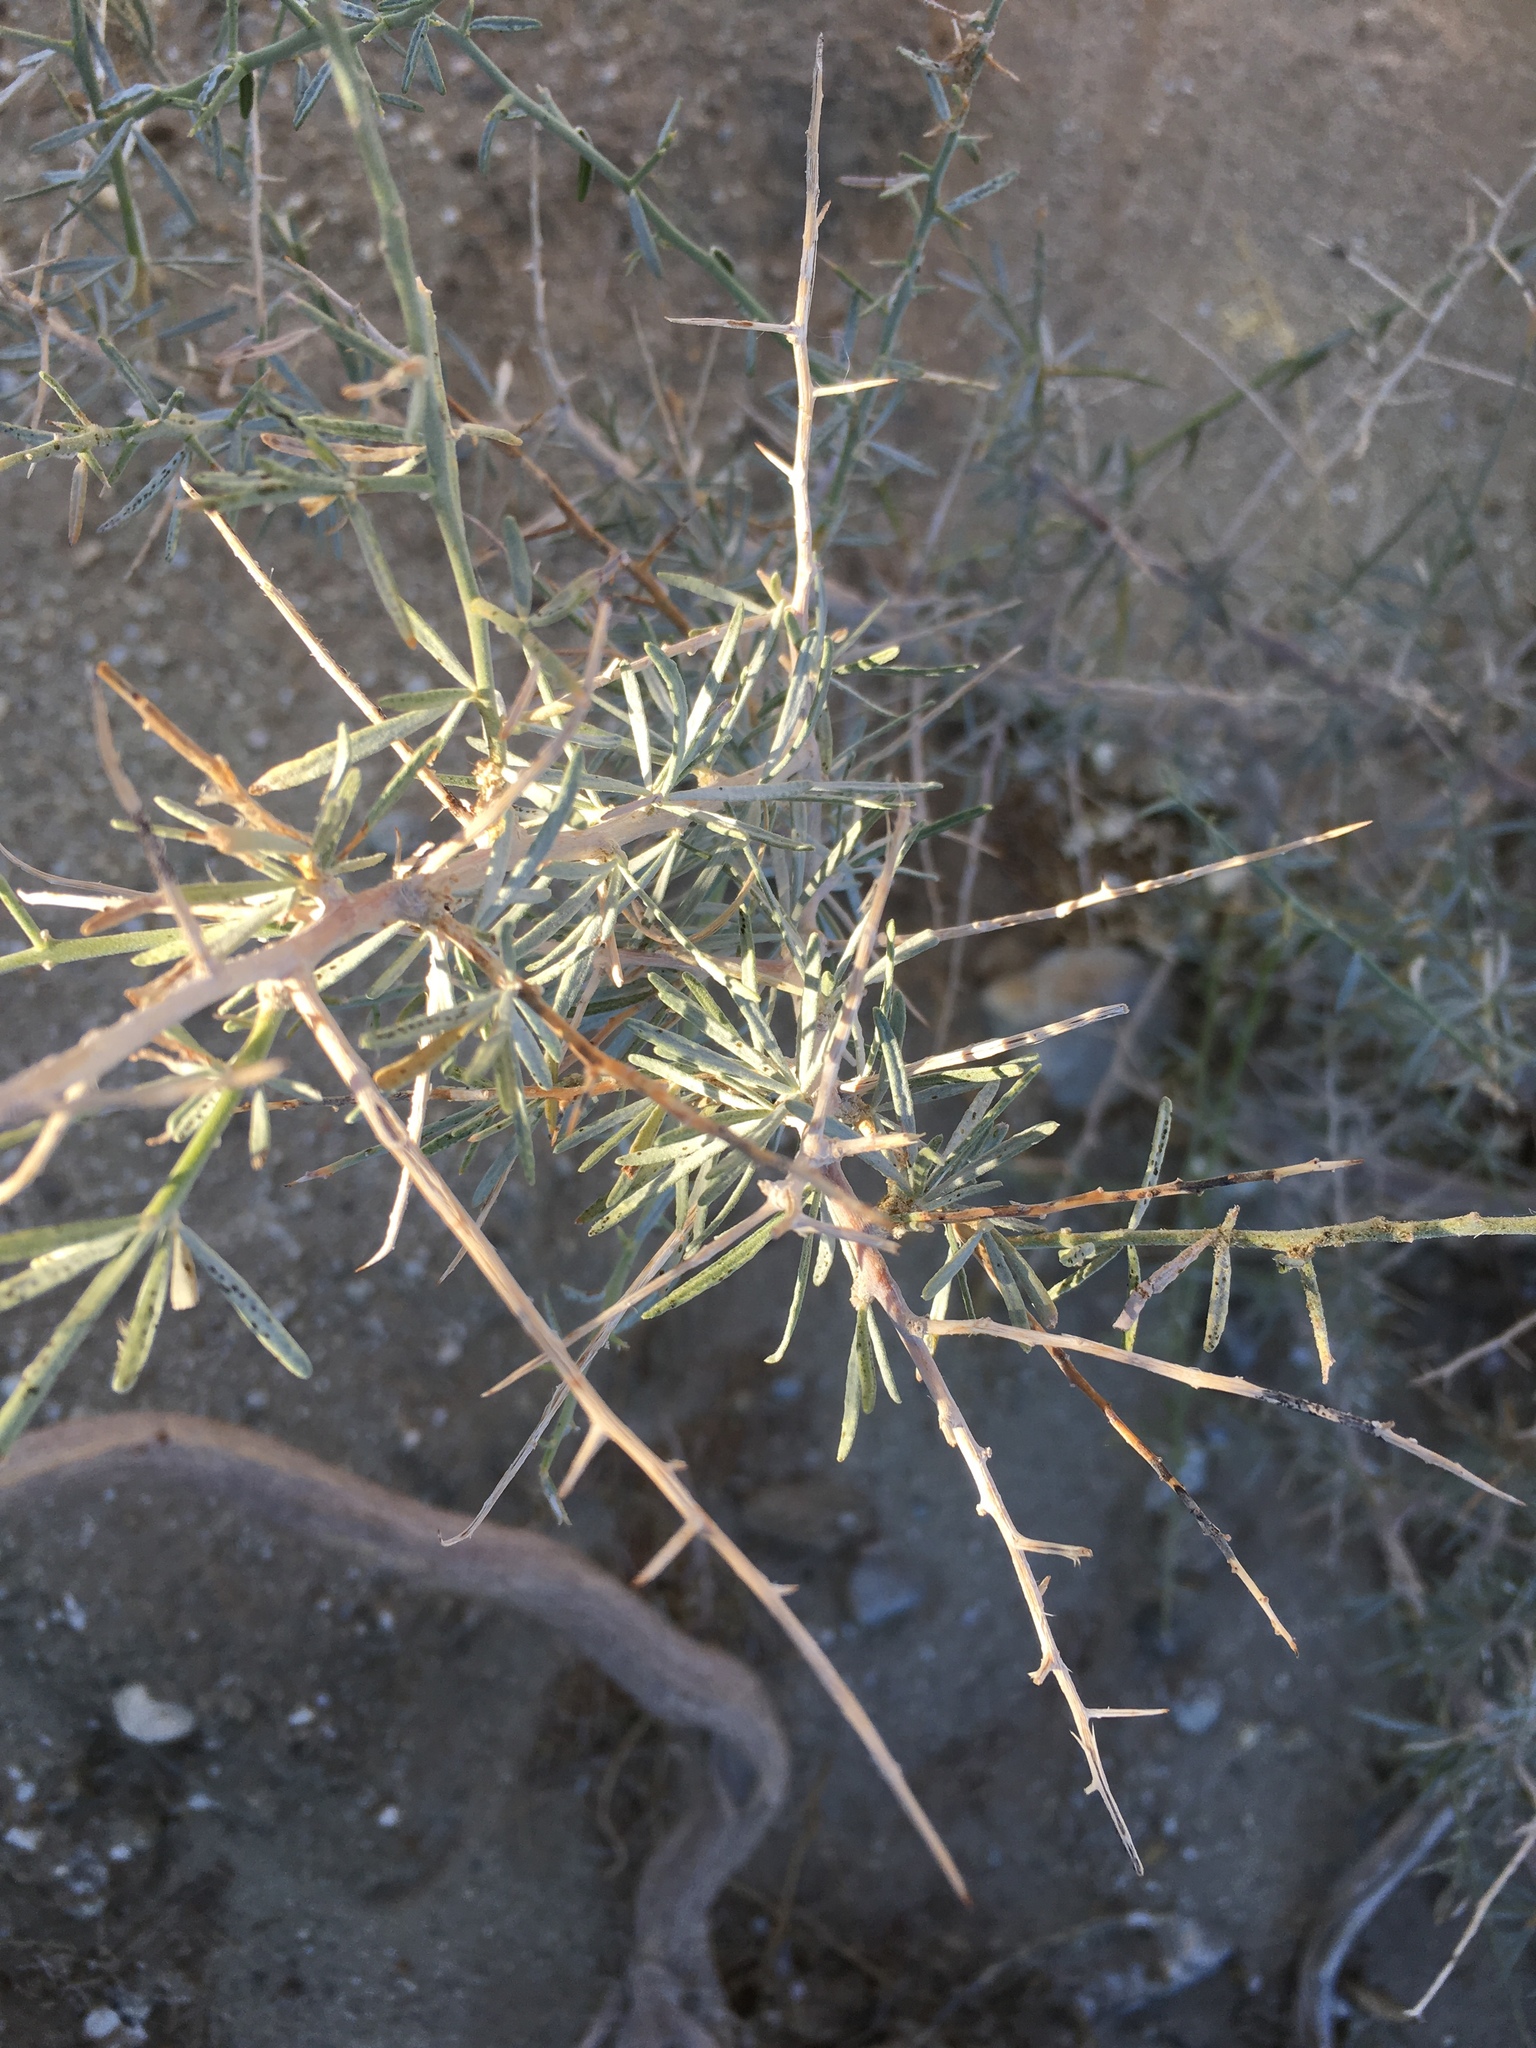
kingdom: Plantae
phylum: Tracheophyta
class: Magnoliopsida
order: Fabales
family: Fabaceae
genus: Psorothamnus
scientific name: Psorothamnus schottii
